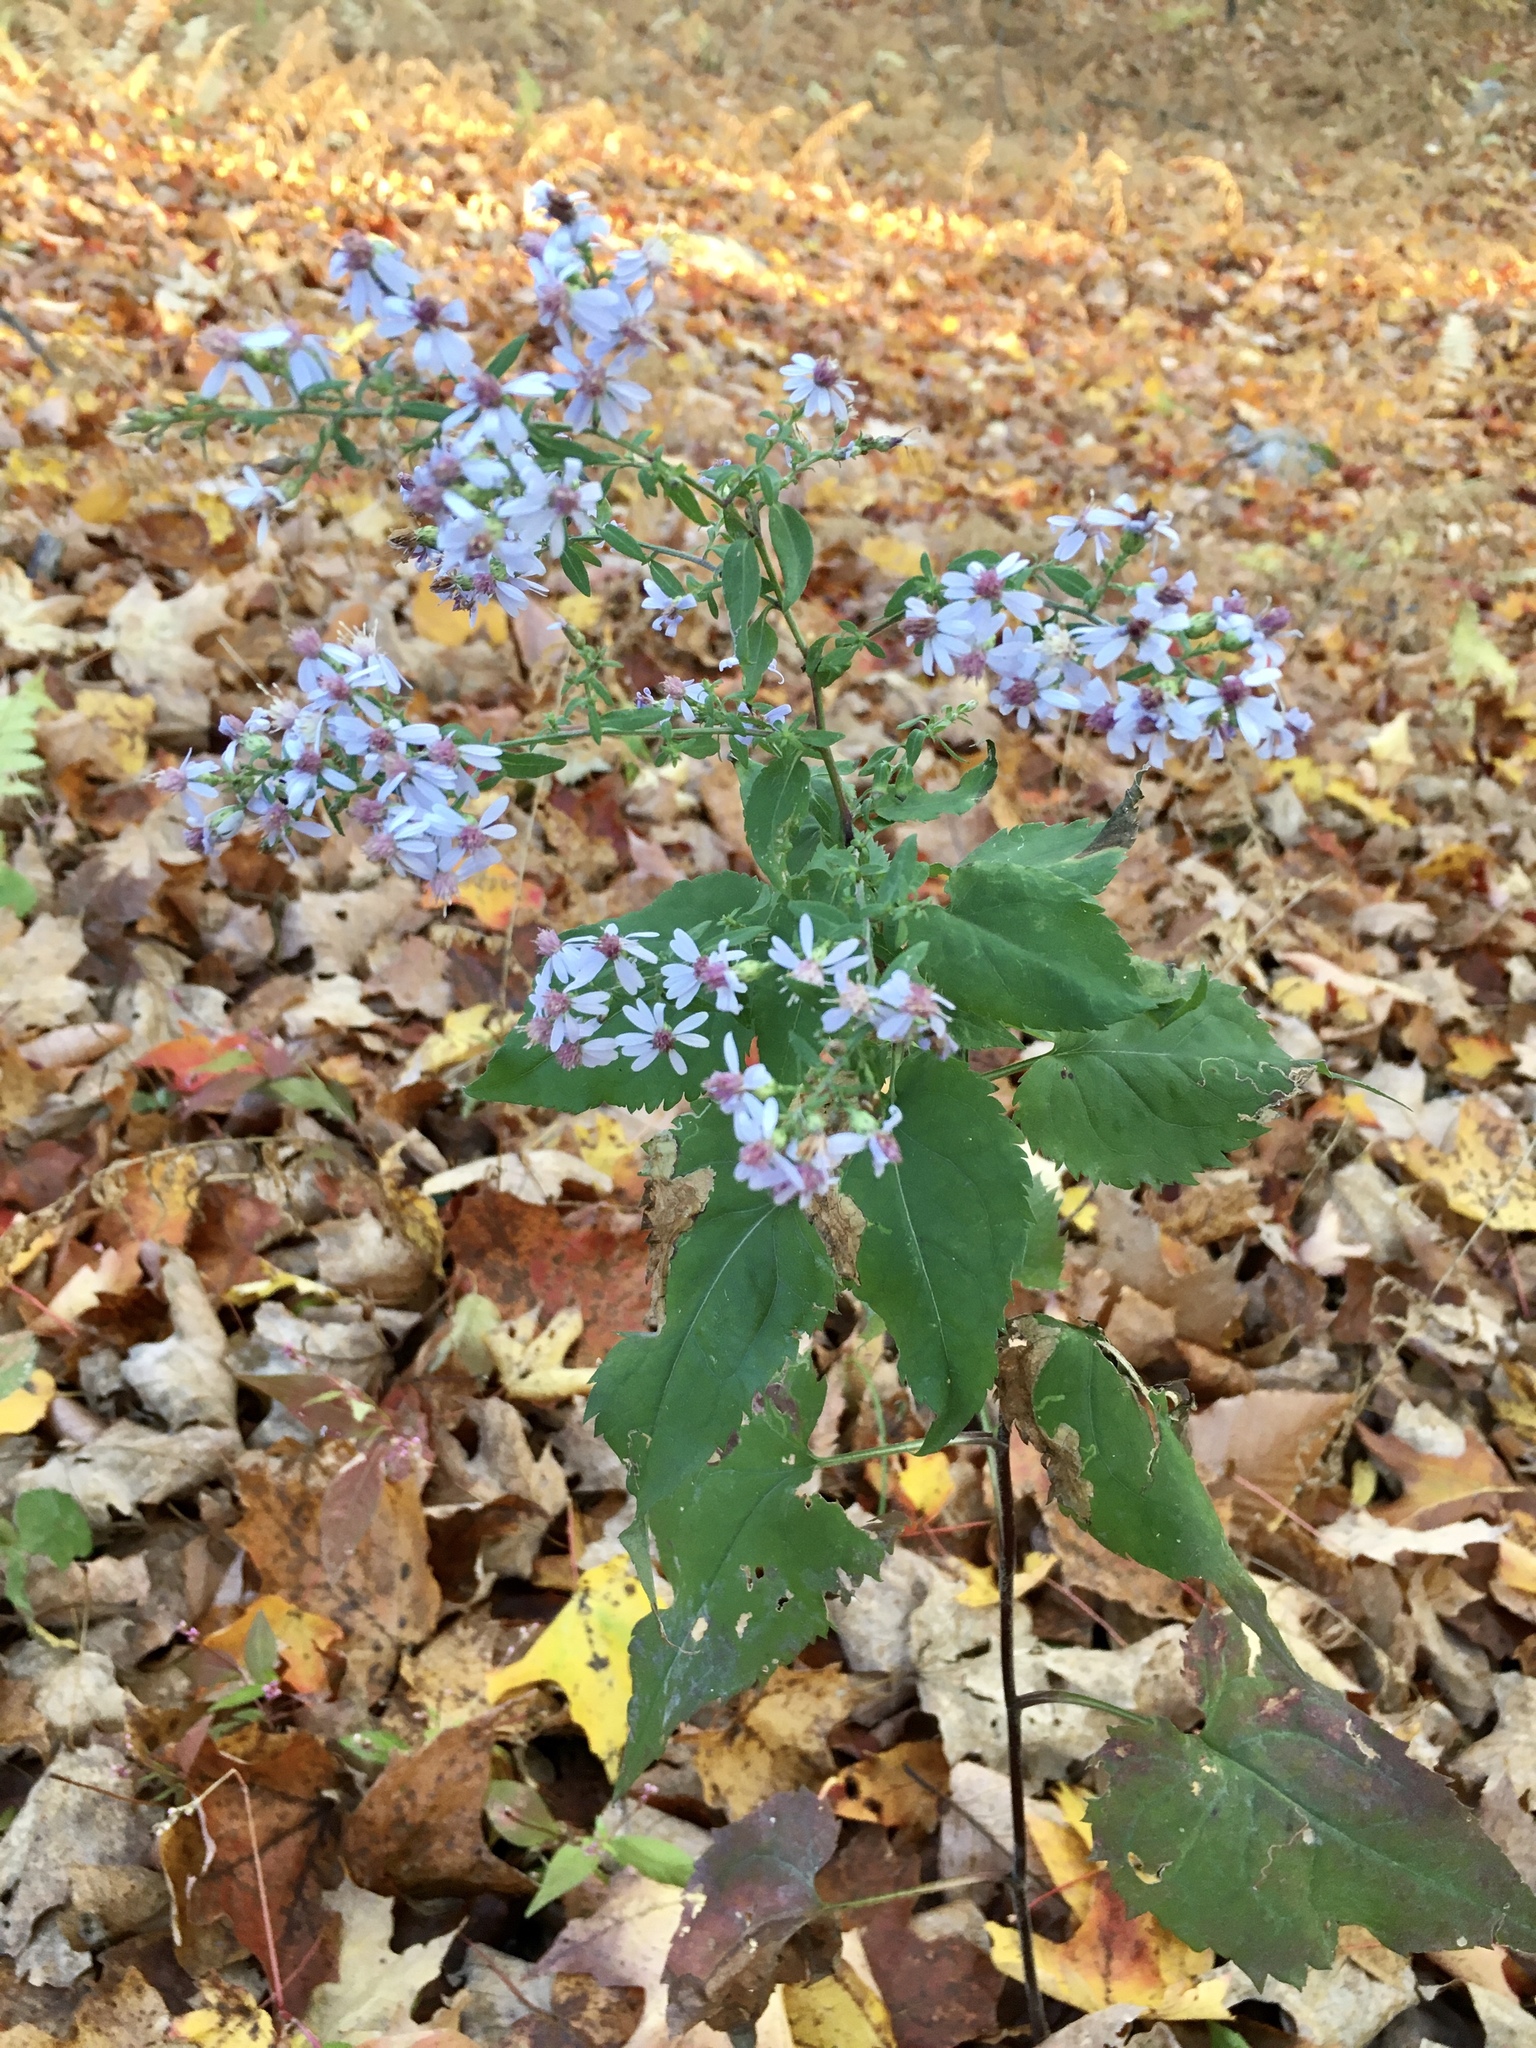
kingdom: Plantae
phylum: Tracheophyta
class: Magnoliopsida
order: Asterales
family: Asteraceae
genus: Symphyotrichum
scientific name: Symphyotrichum cordifolium
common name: Beeweed
